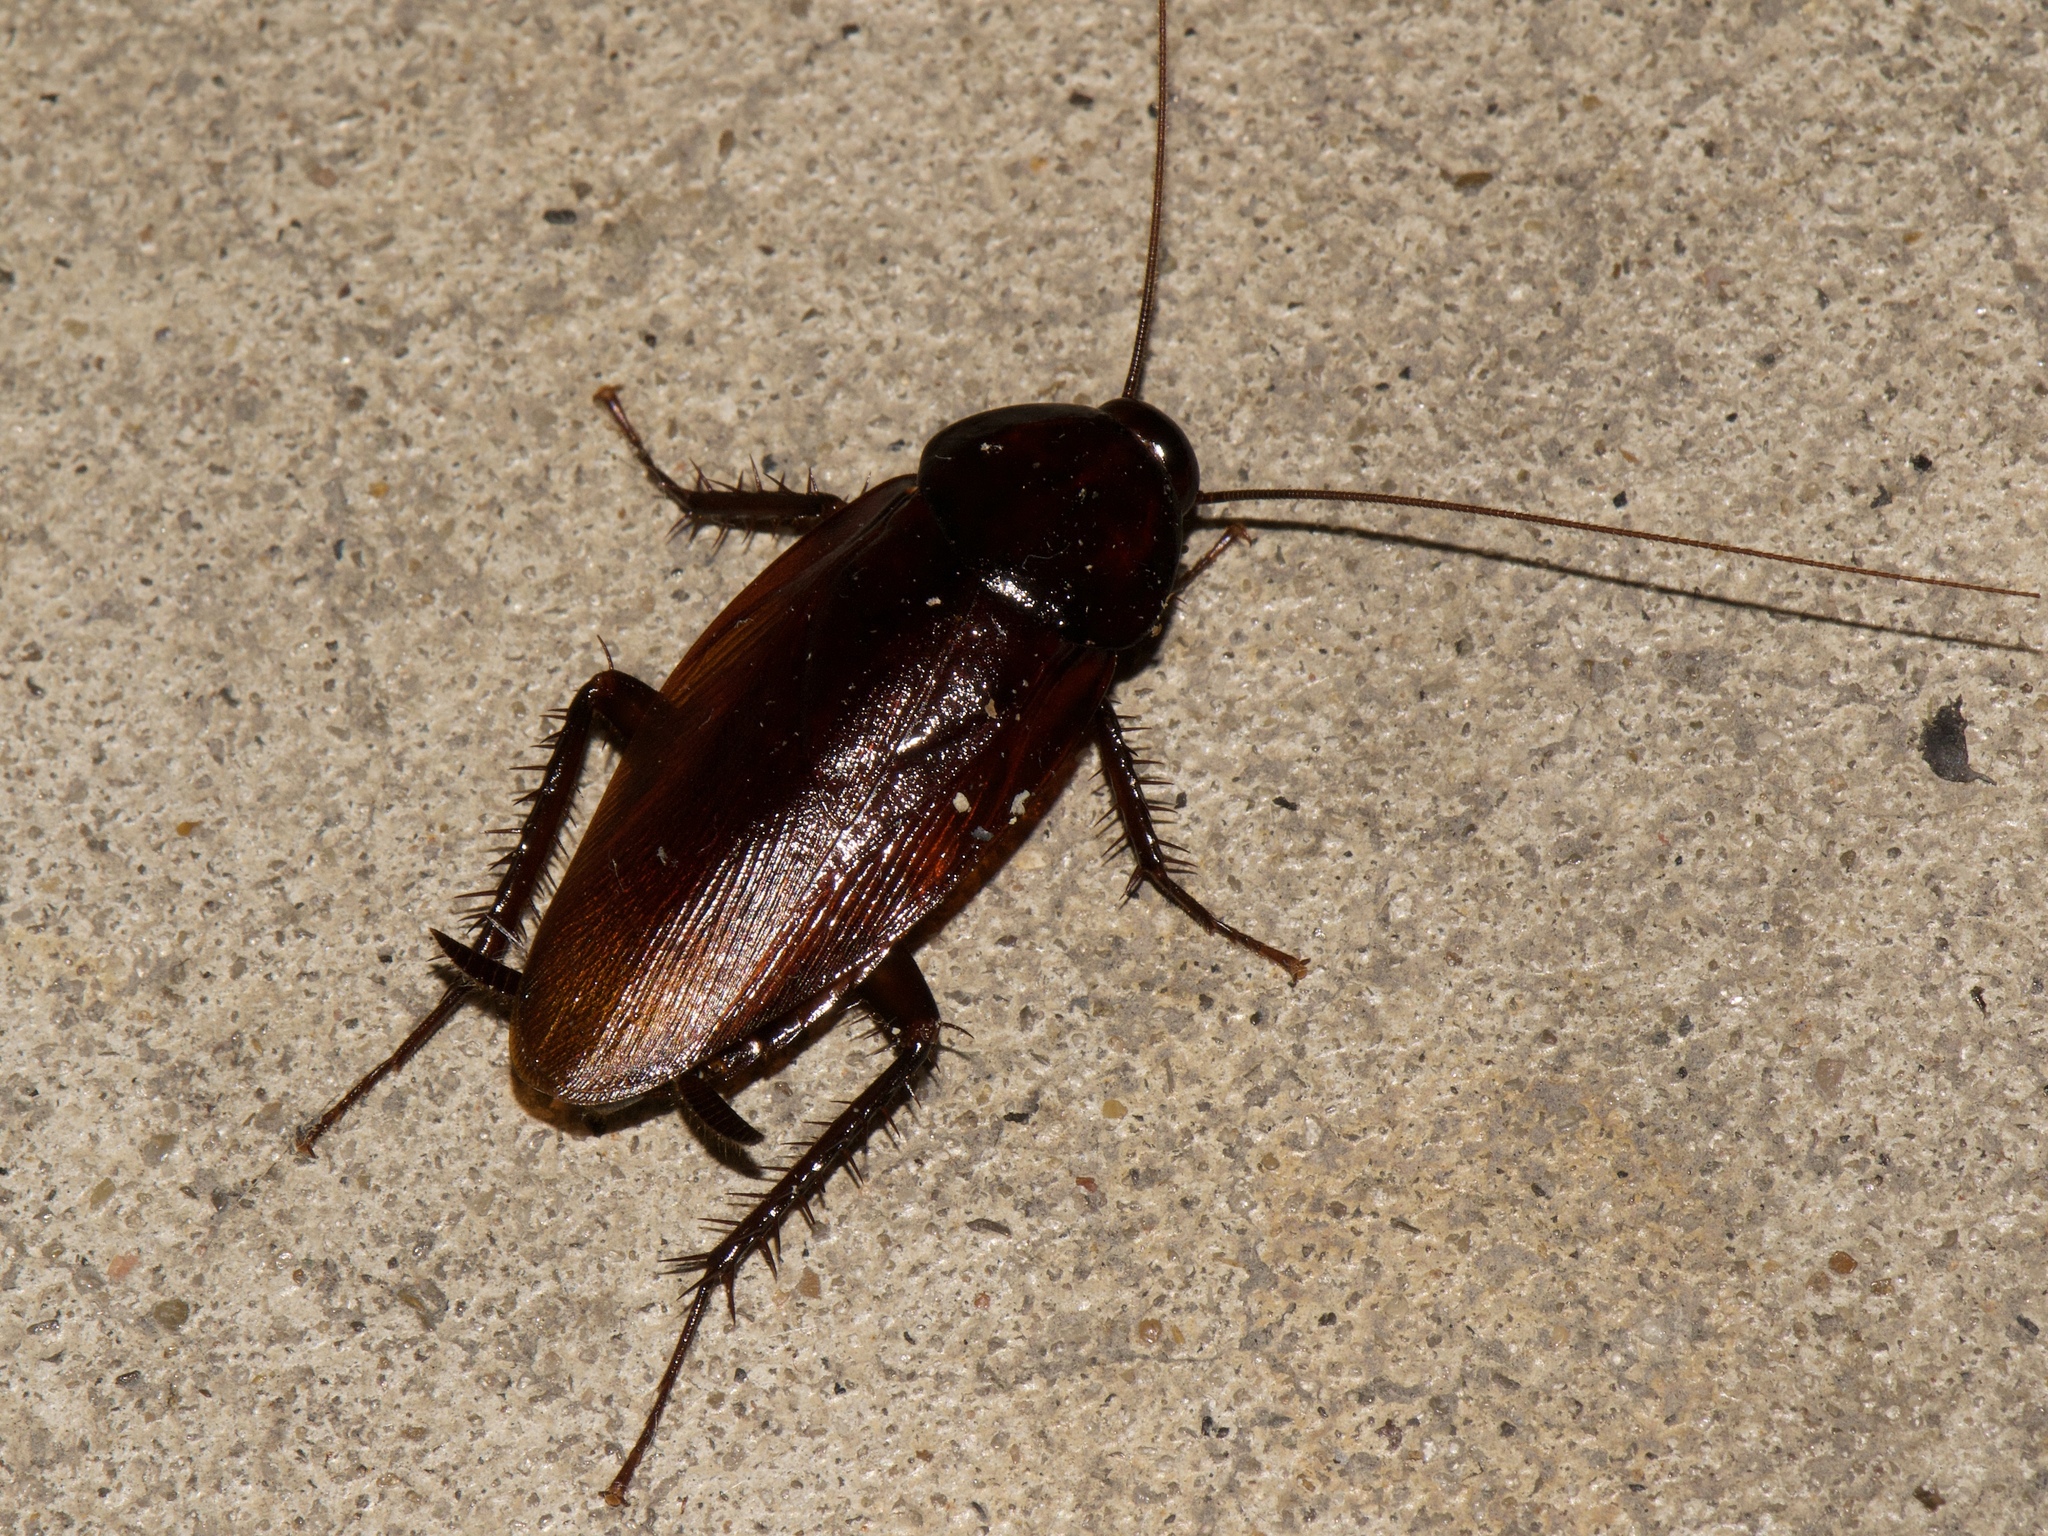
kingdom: Animalia
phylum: Arthropoda
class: Insecta
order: Blattodea
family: Blattidae
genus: Periplaneta
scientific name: Periplaneta fuliginosa
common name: Smokeybrown cockroad
